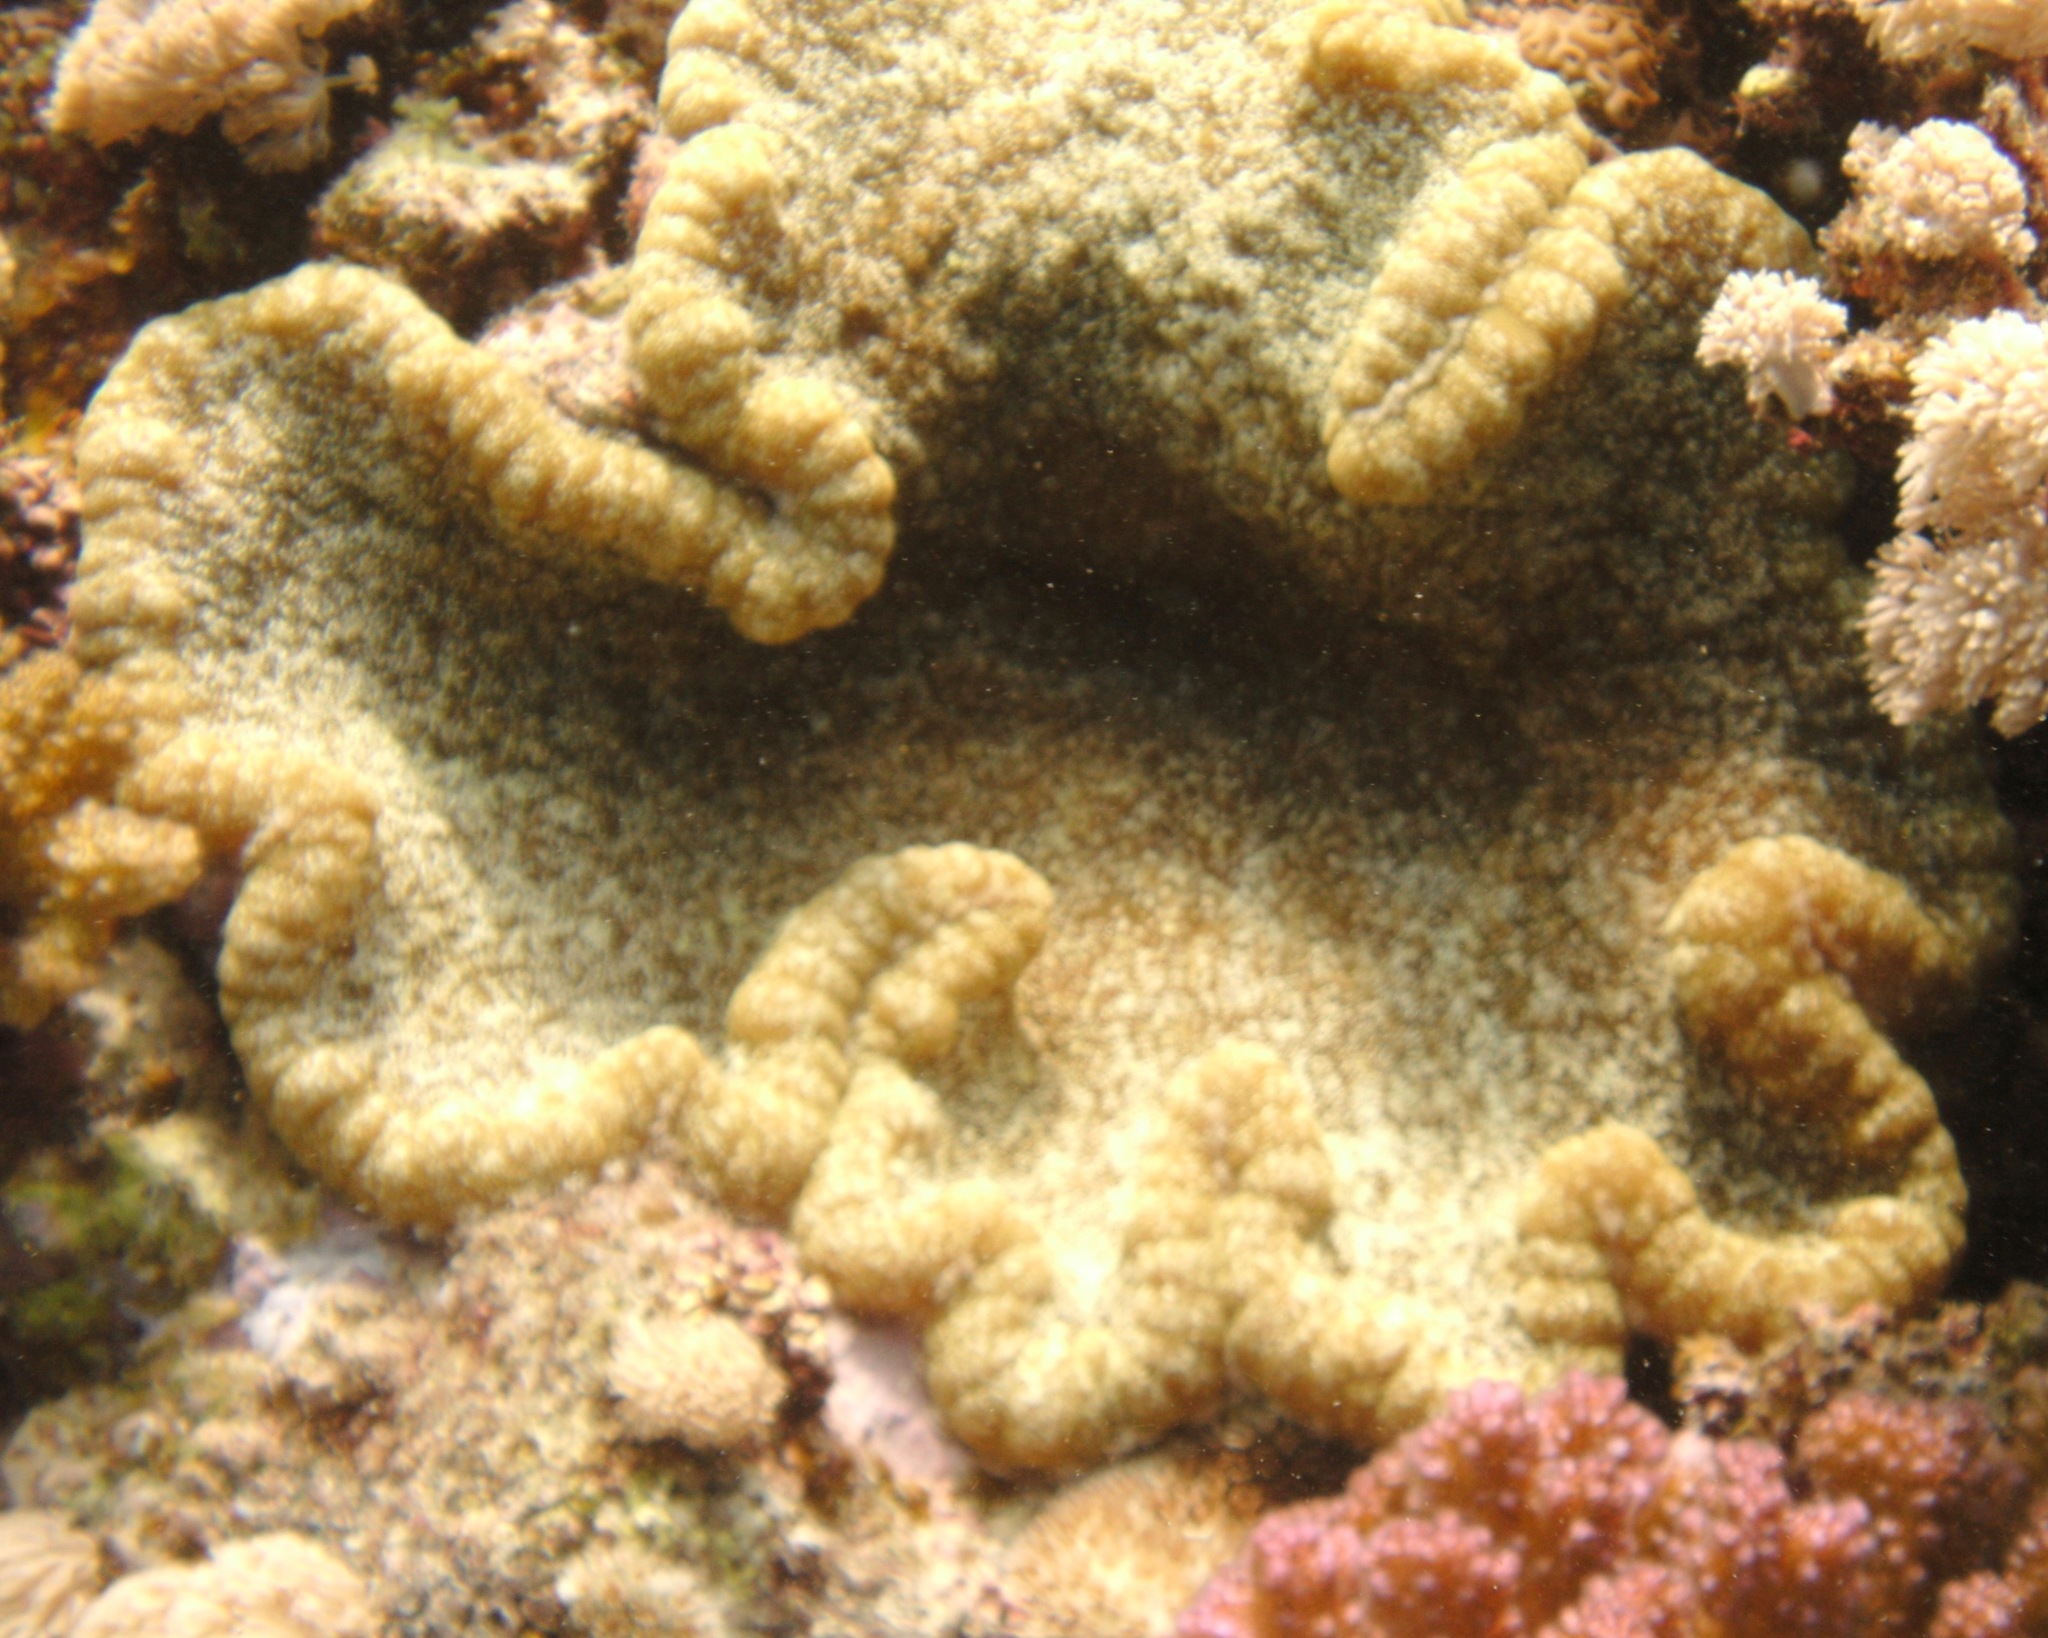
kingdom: Animalia
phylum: Cnidaria
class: Anthozoa
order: Actiniaria
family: Thalassianthidae
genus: Cryptodendrum
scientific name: Cryptodendrum adhaesivum
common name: Adhesive sea anemone
